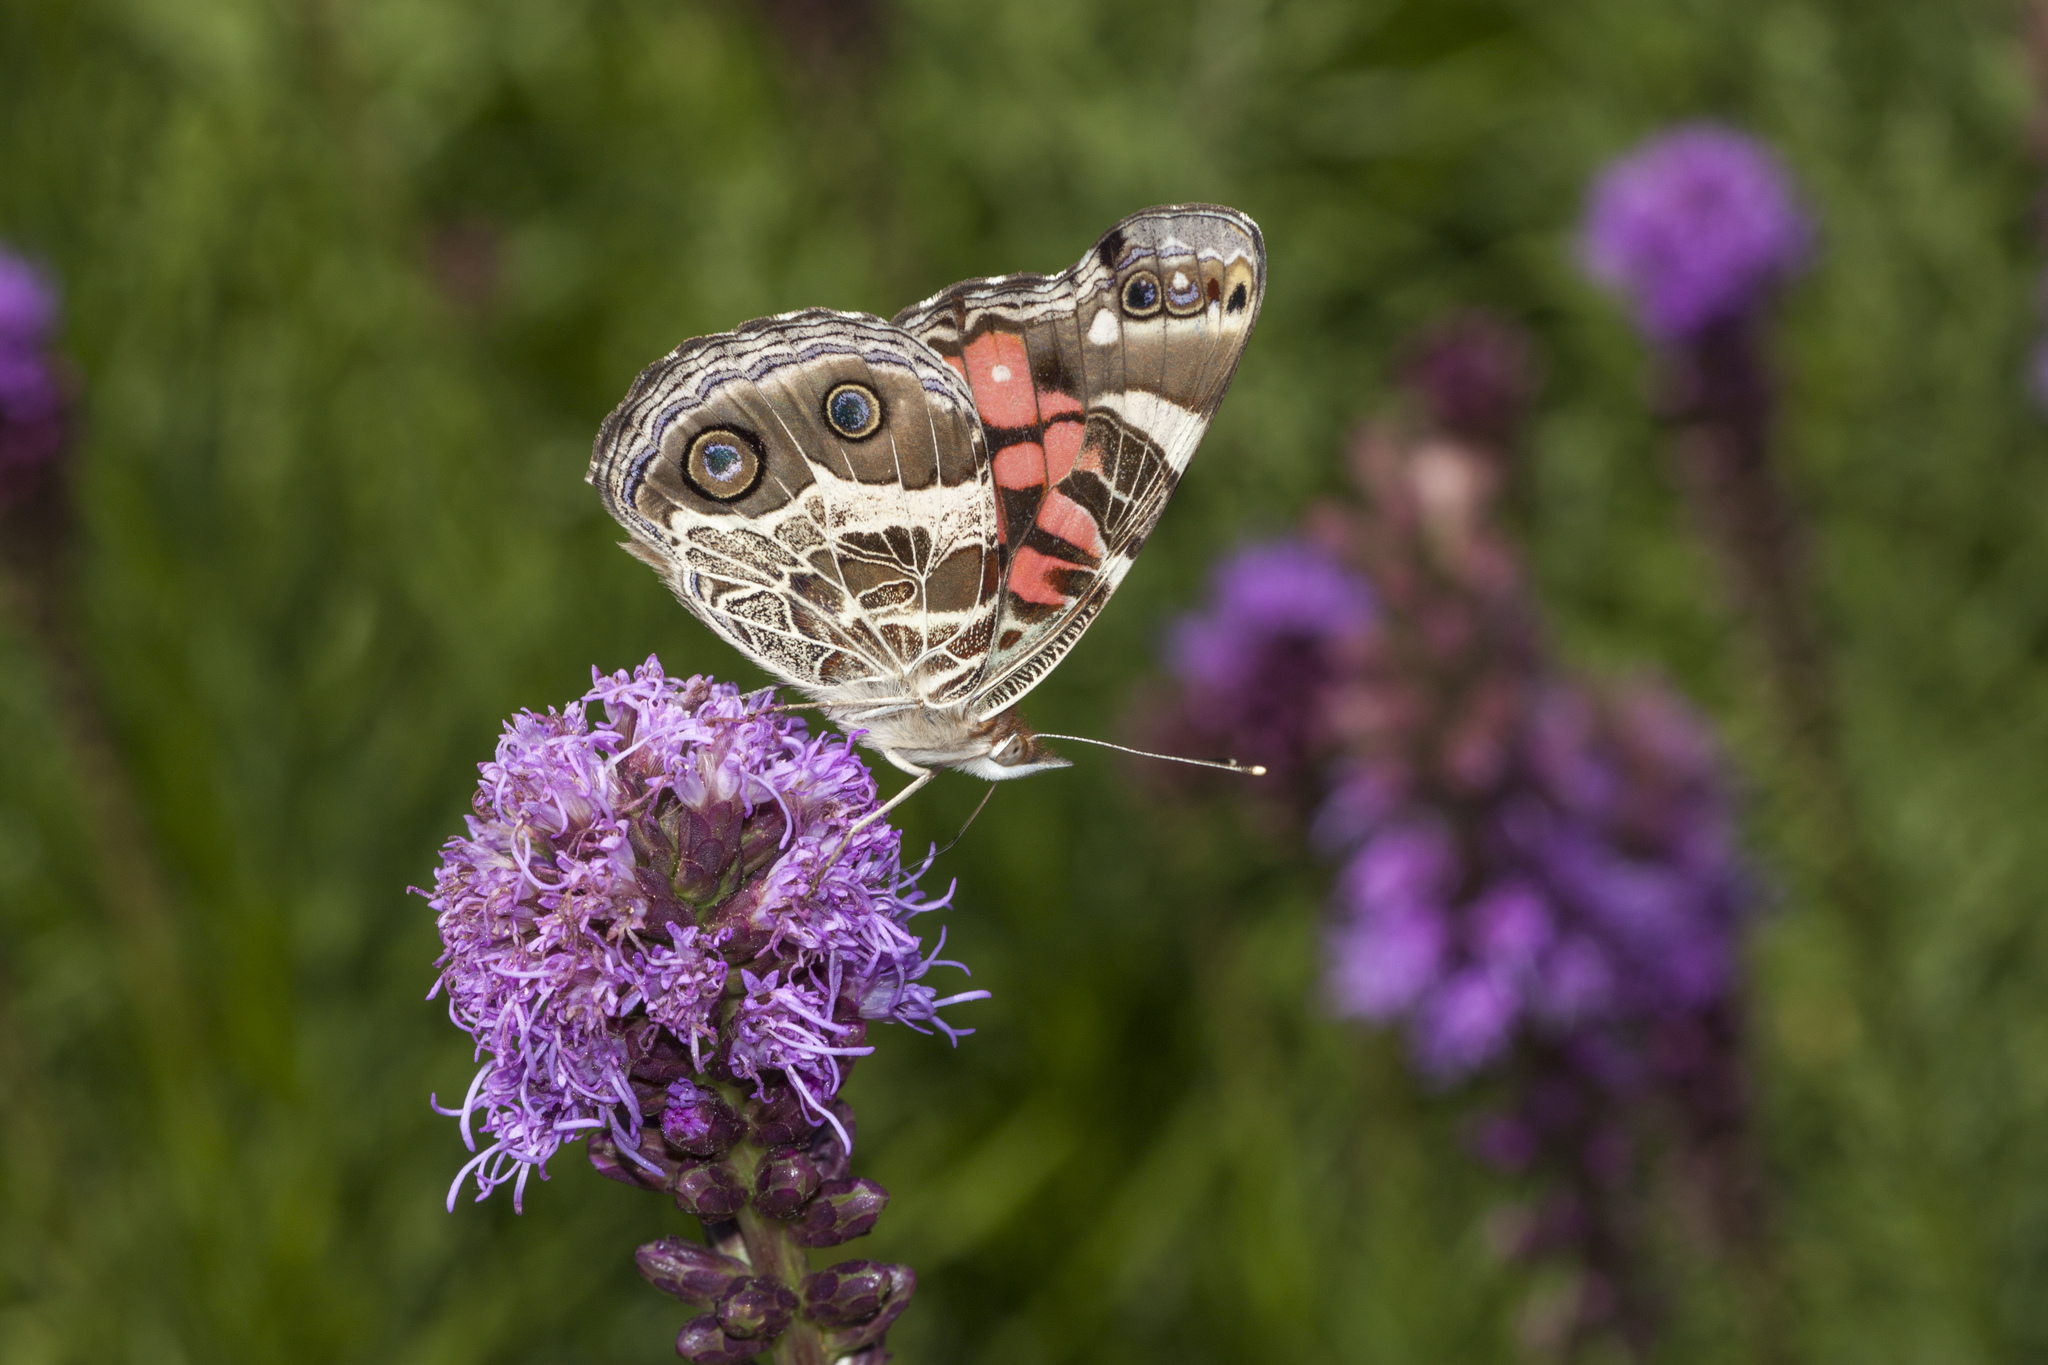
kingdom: Animalia
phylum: Arthropoda
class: Insecta
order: Lepidoptera
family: Nymphalidae
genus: Vanessa
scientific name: Vanessa virginiensis
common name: American lady
